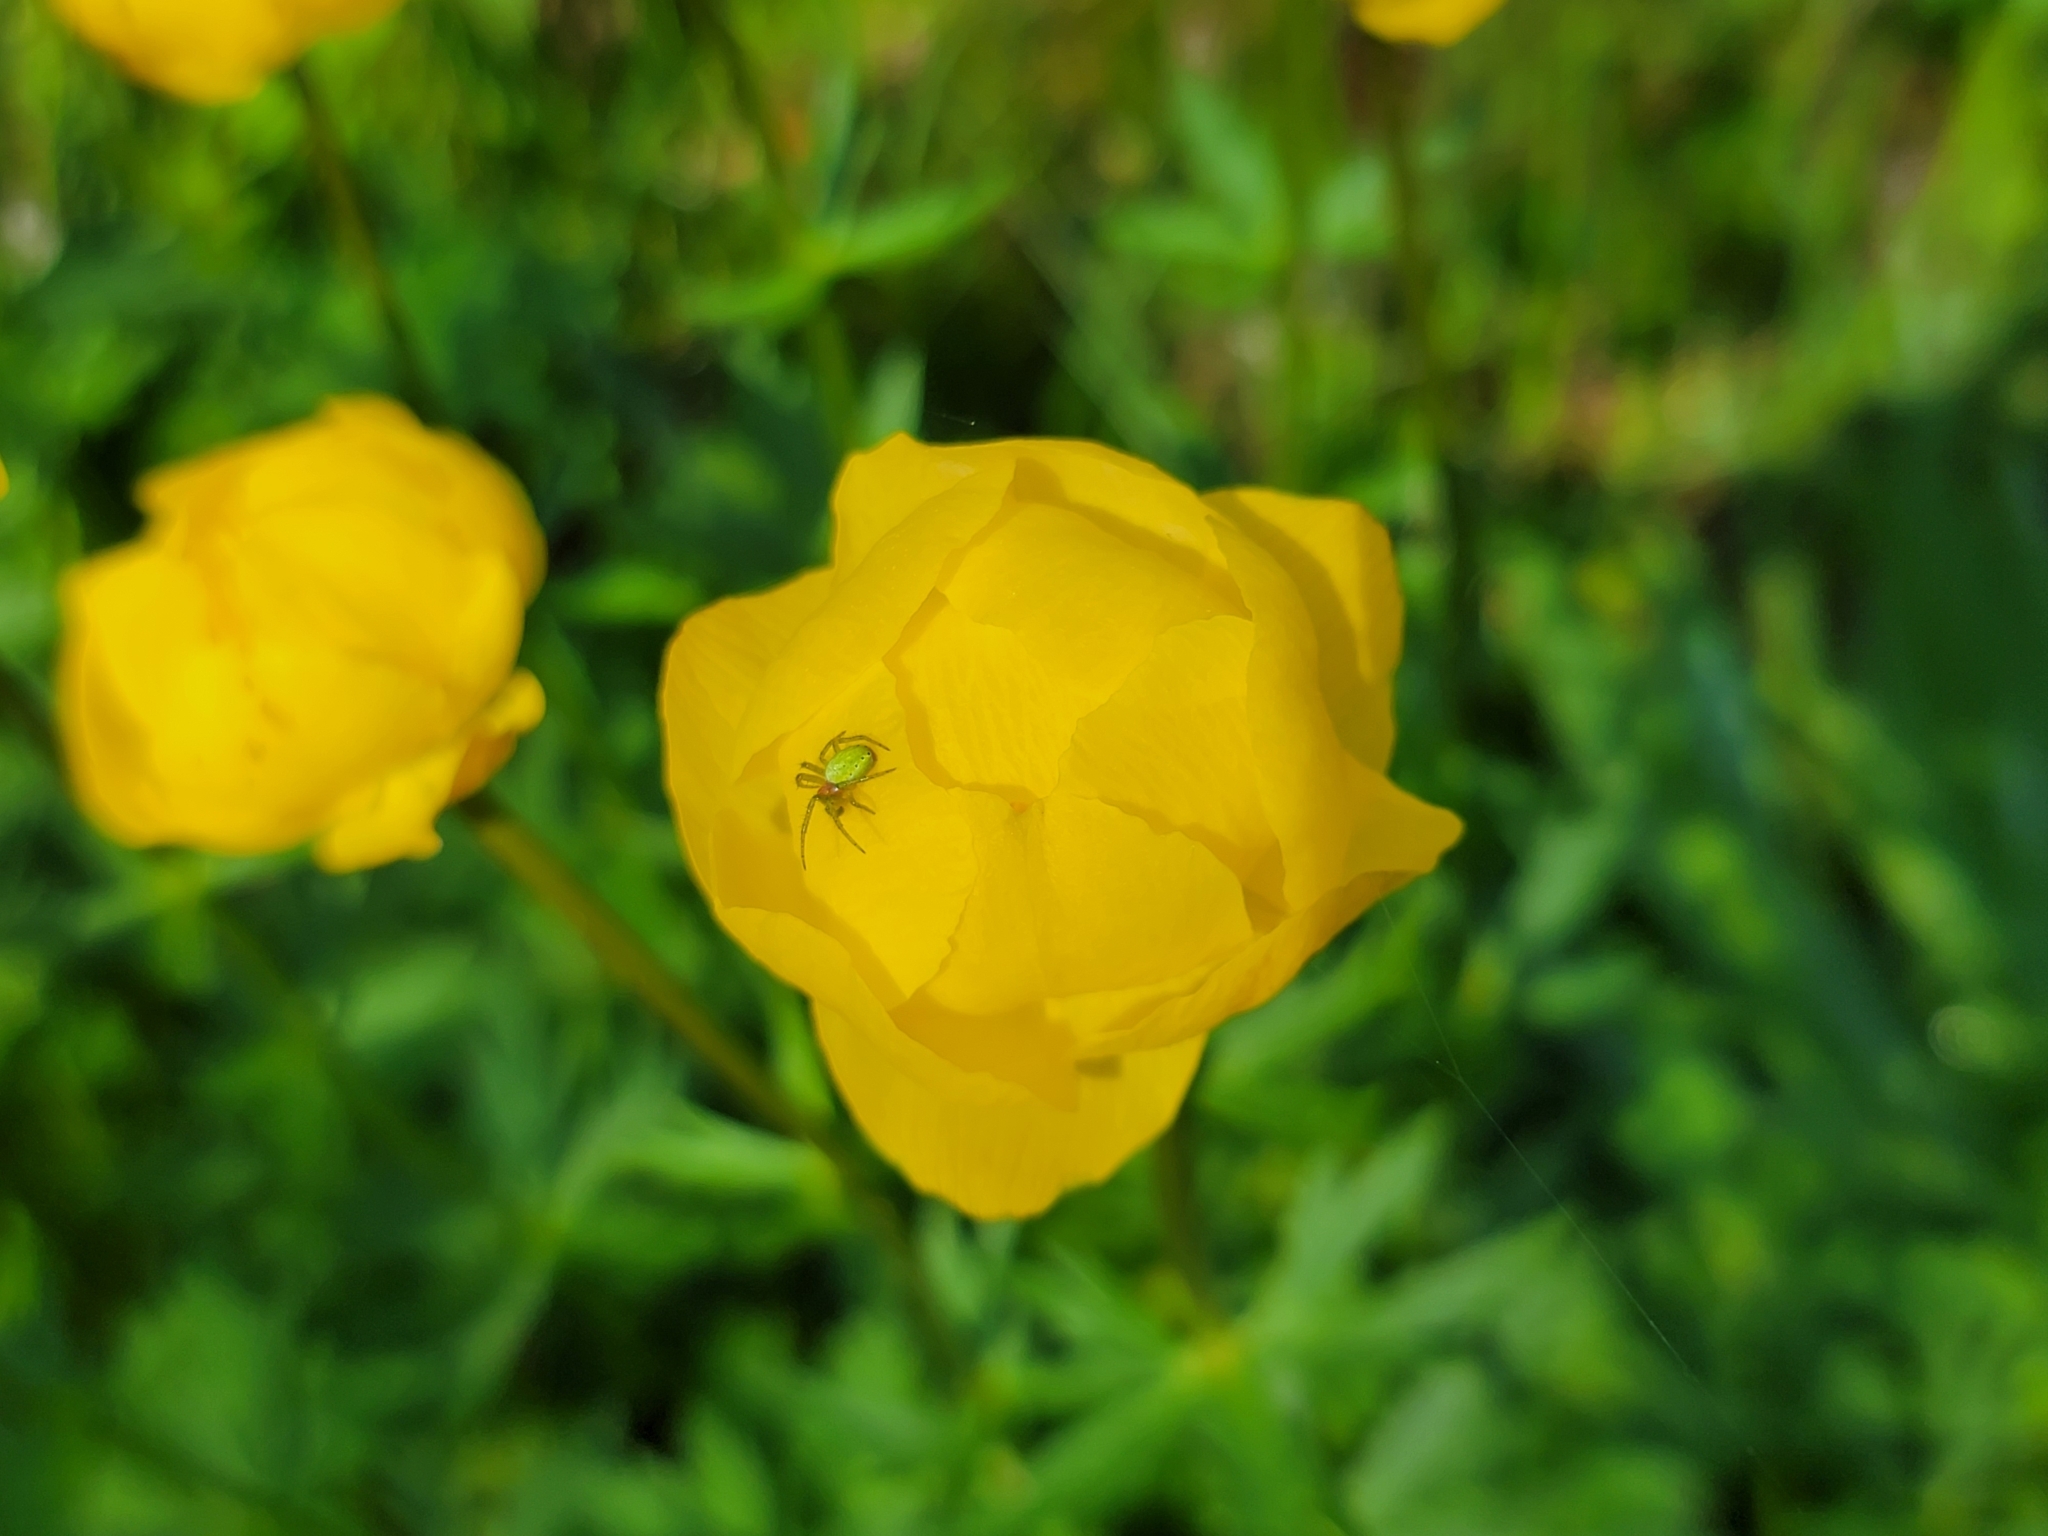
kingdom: Plantae
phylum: Tracheophyta
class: Magnoliopsida
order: Ranunculales
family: Ranunculaceae
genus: Trollius
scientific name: Trollius europaeus
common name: European globeflower
